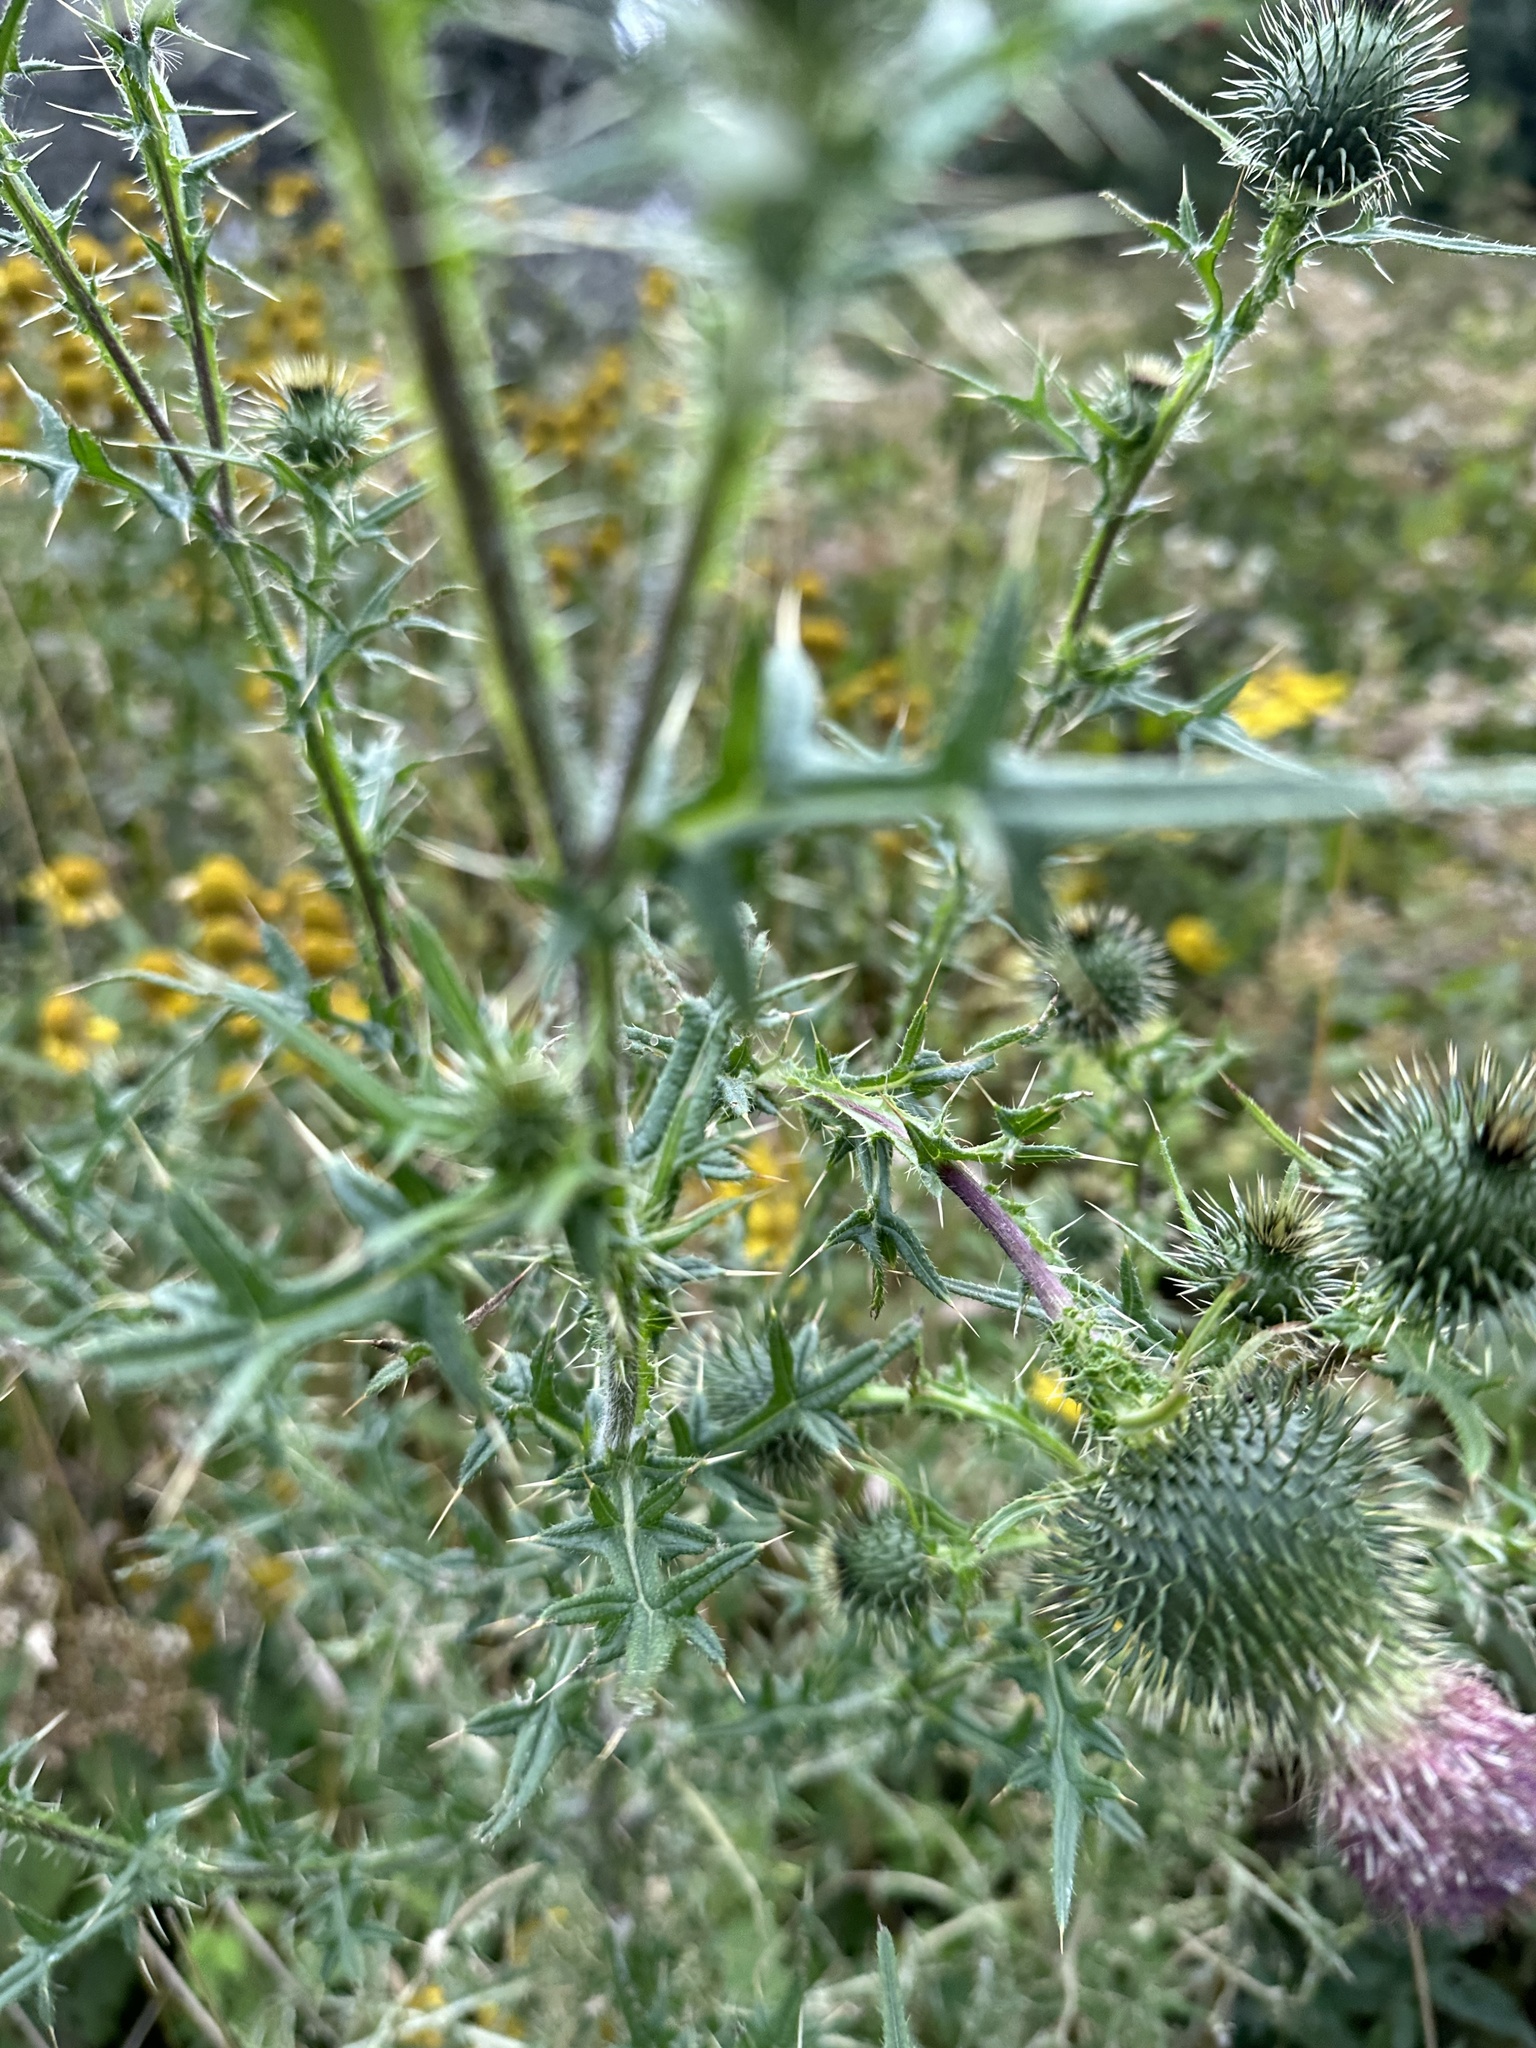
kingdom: Plantae
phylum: Tracheophyta
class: Magnoliopsida
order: Asterales
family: Asteraceae
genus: Cirsium
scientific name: Cirsium vulgare
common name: Bull thistle
